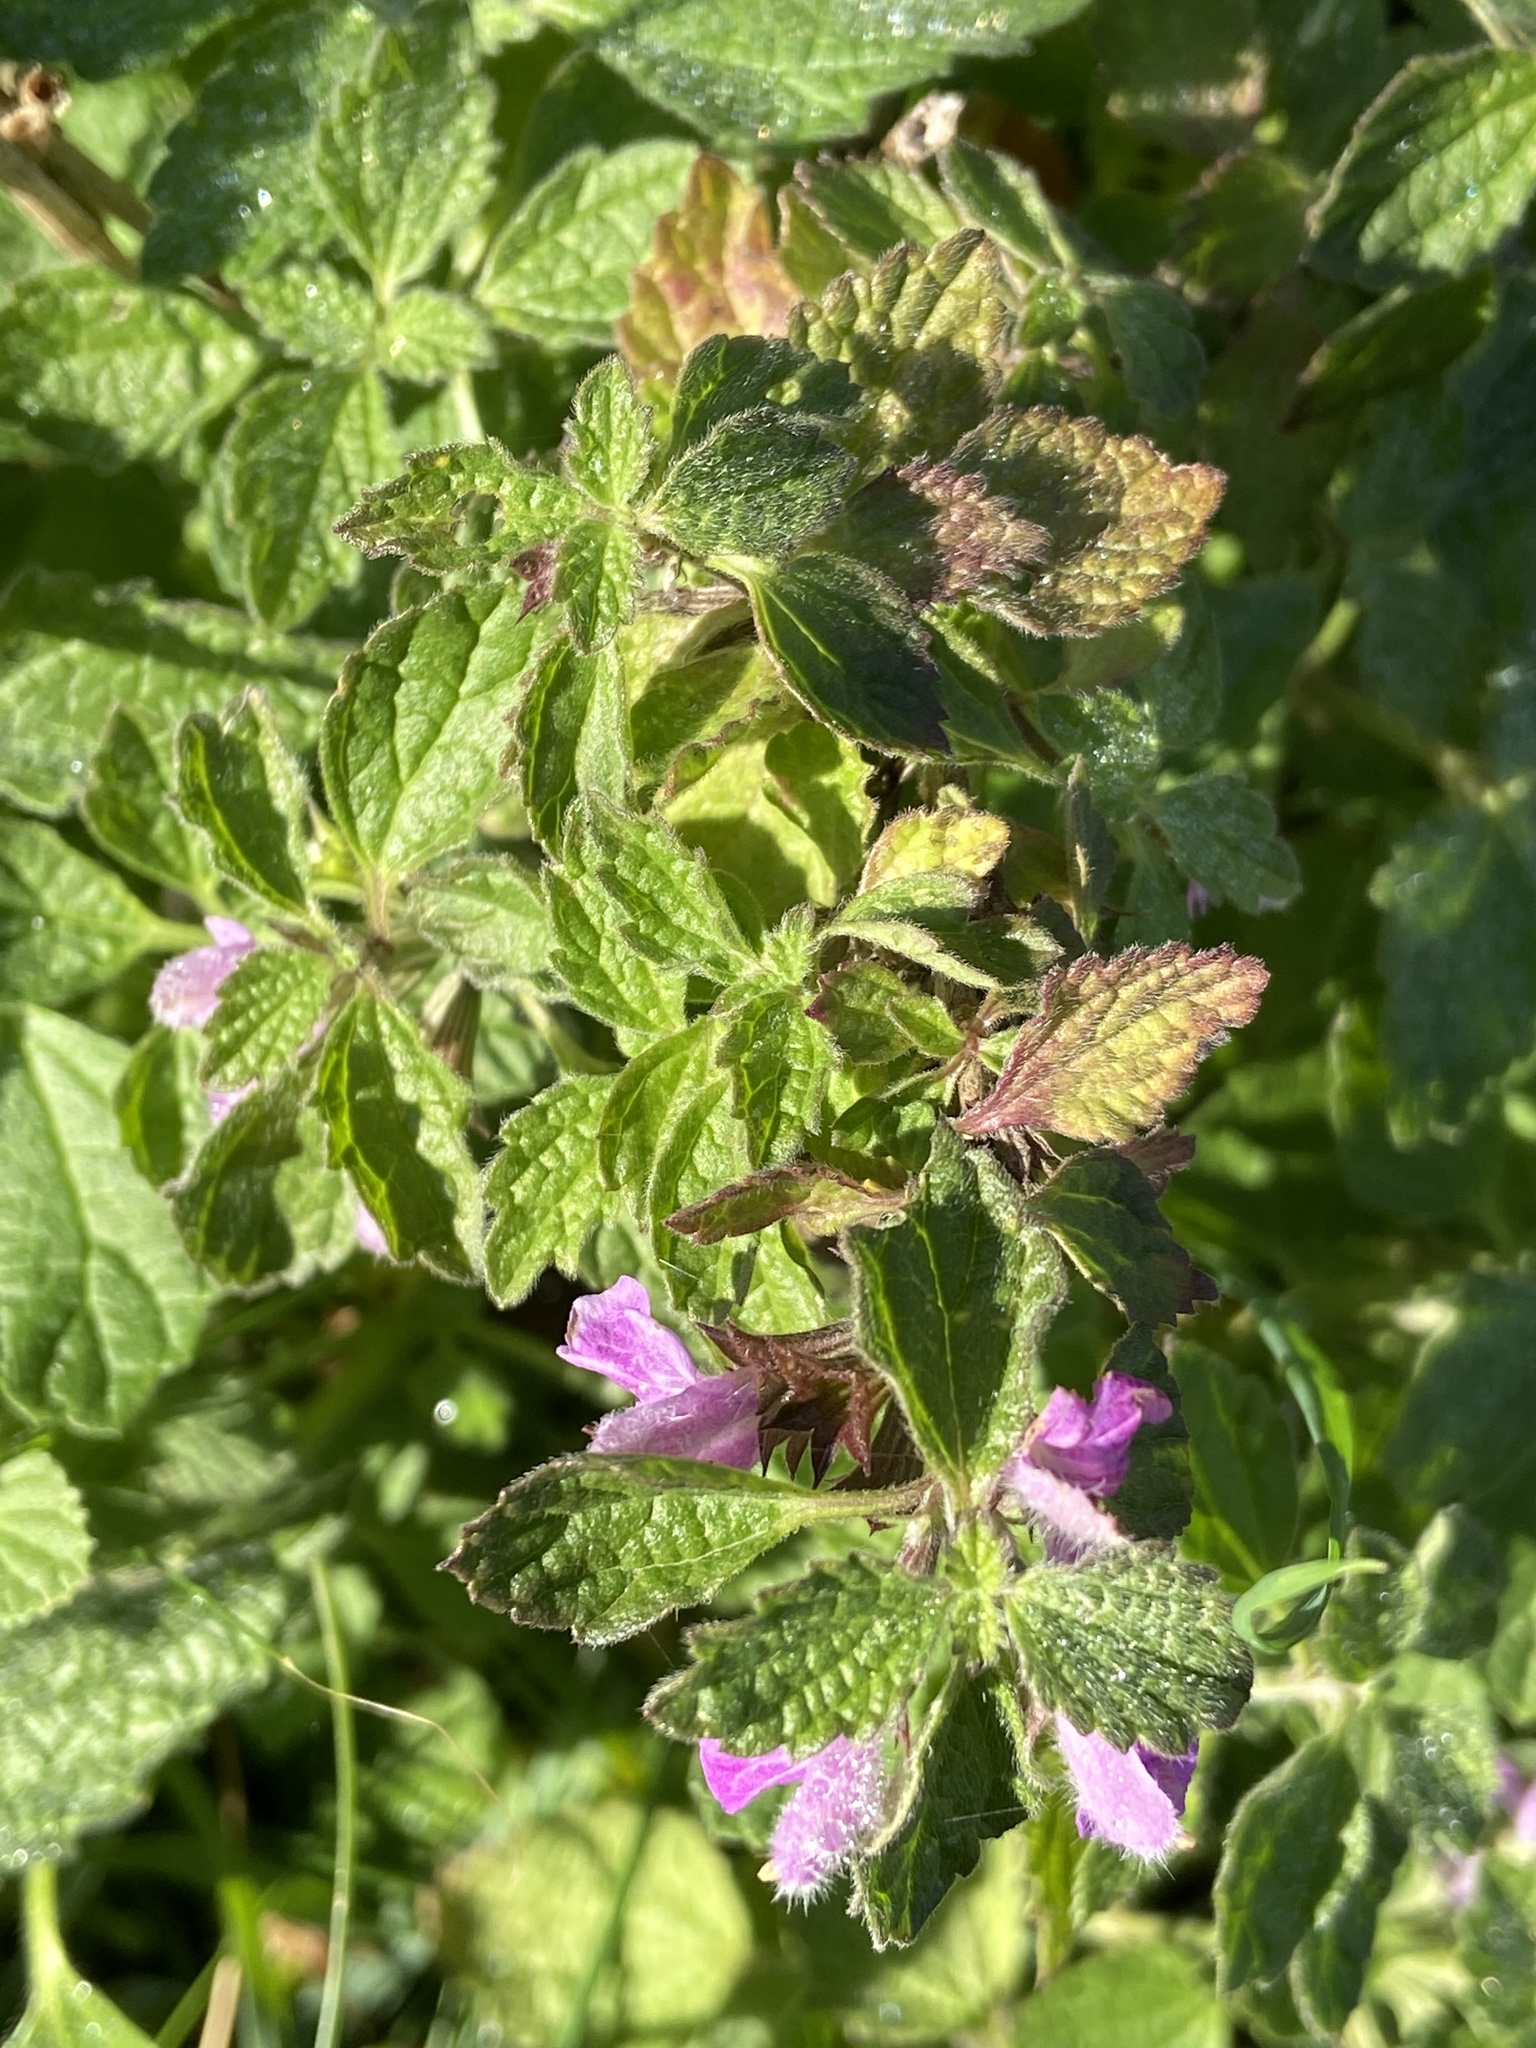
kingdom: Plantae
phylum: Tracheophyta
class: Magnoliopsida
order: Lamiales
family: Lamiaceae
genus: Ballota
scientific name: Ballota nigra
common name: Black horehound
